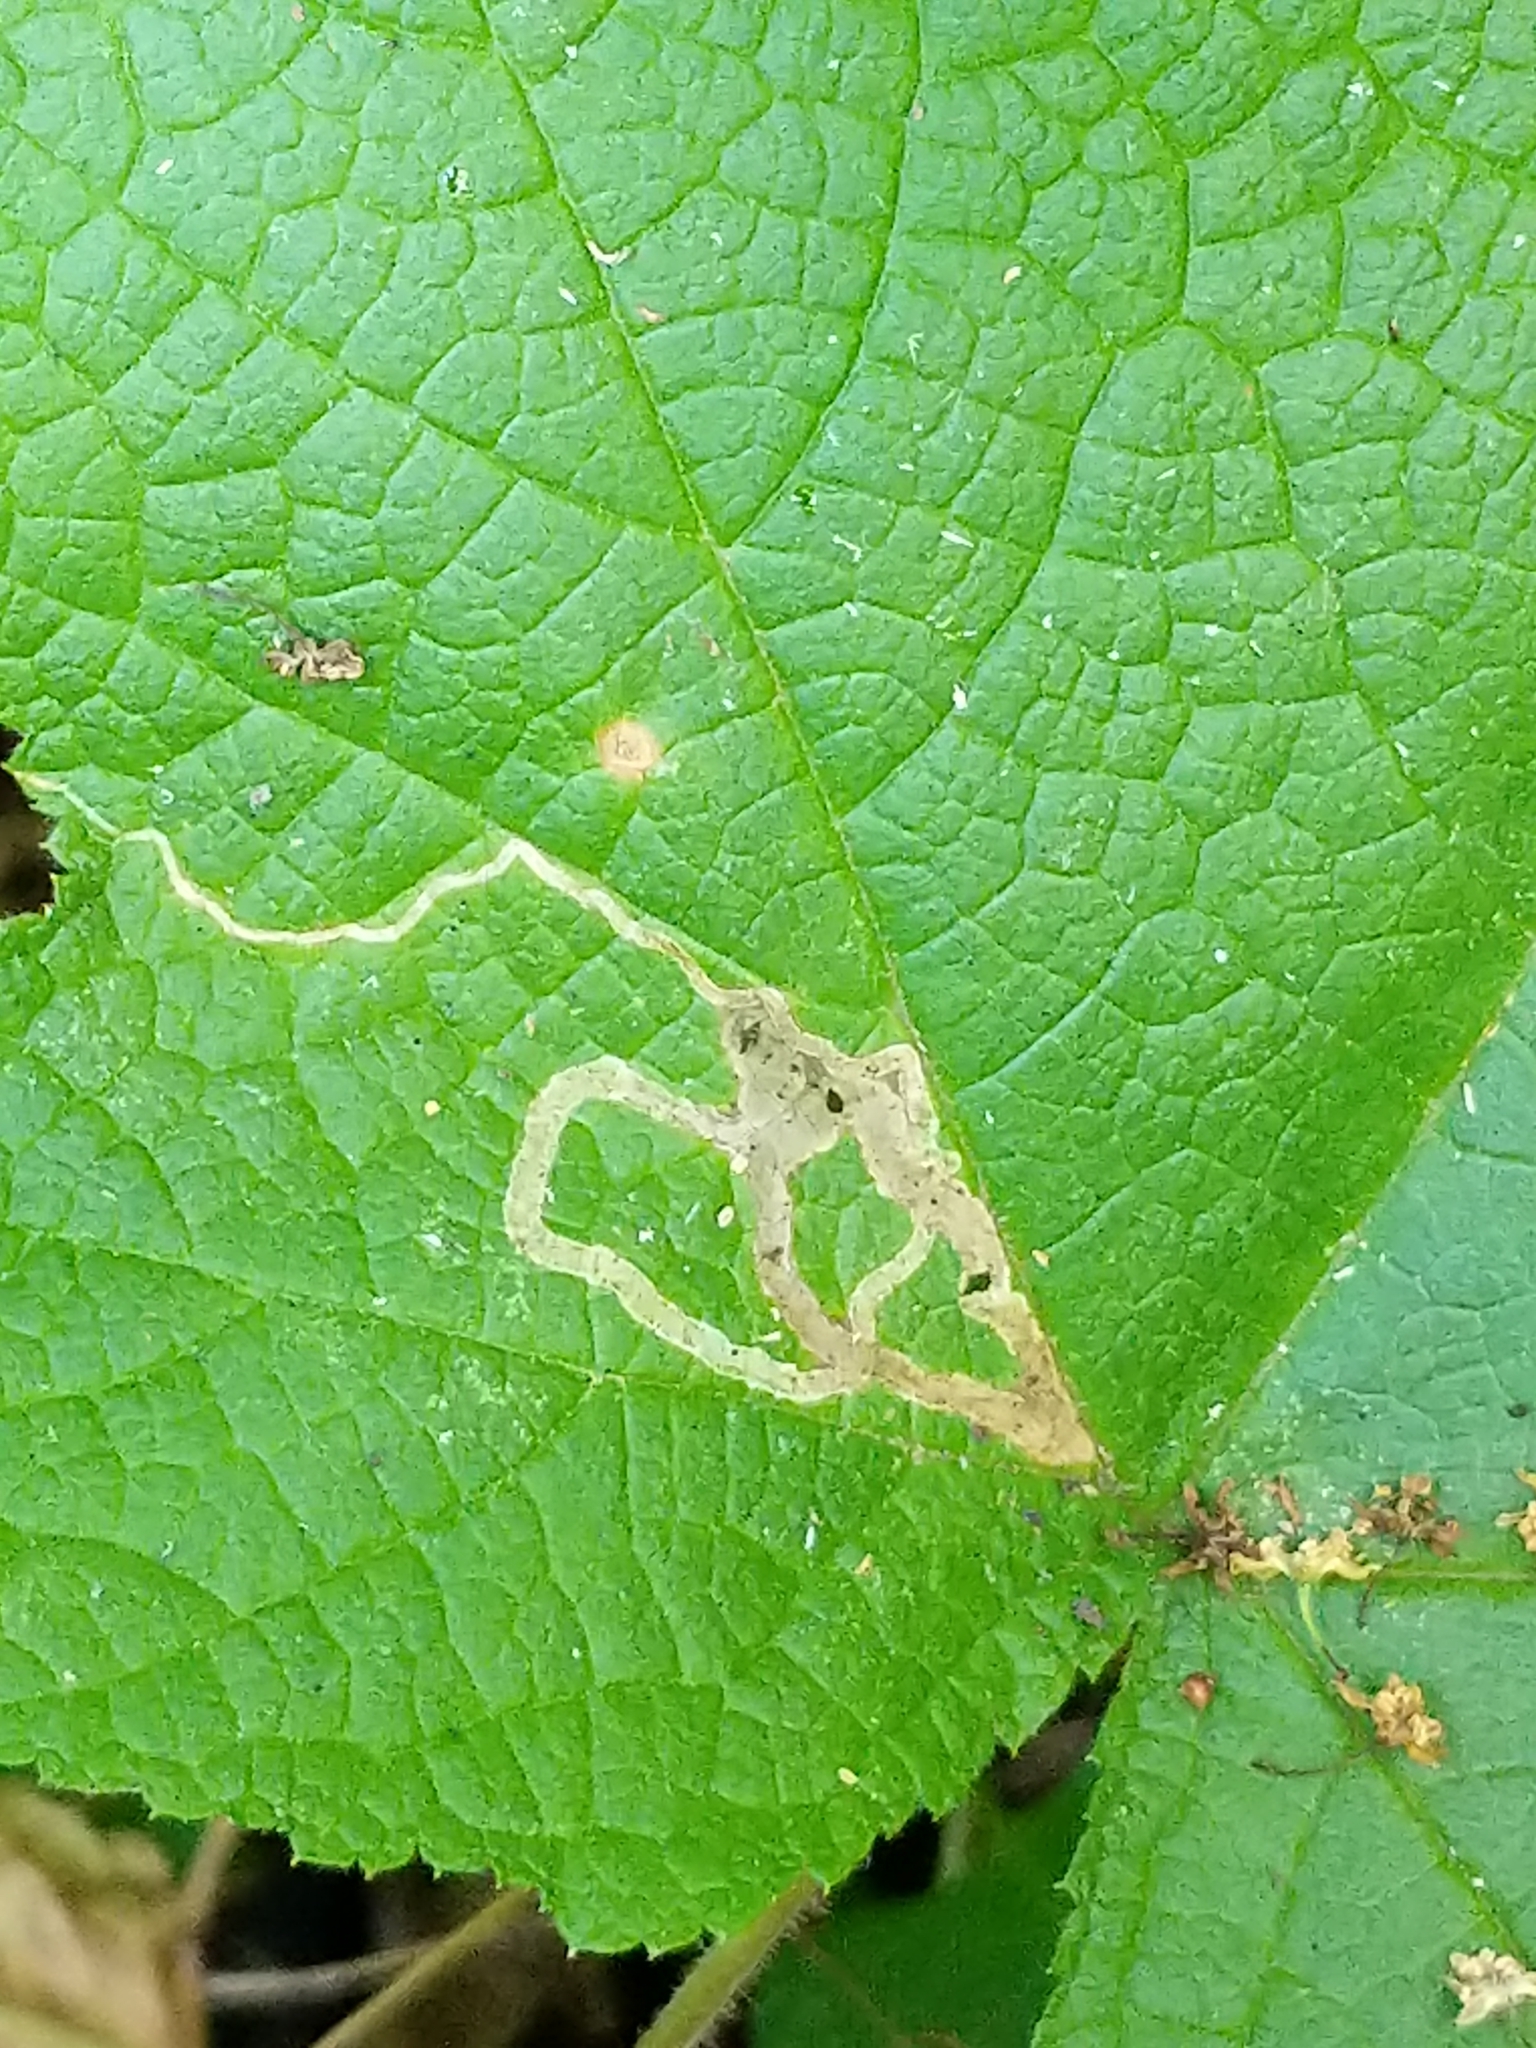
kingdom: Animalia
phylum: Arthropoda
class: Insecta
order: Diptera
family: Agromyzidae
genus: Agromyza
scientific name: Agromyza vockerothi
